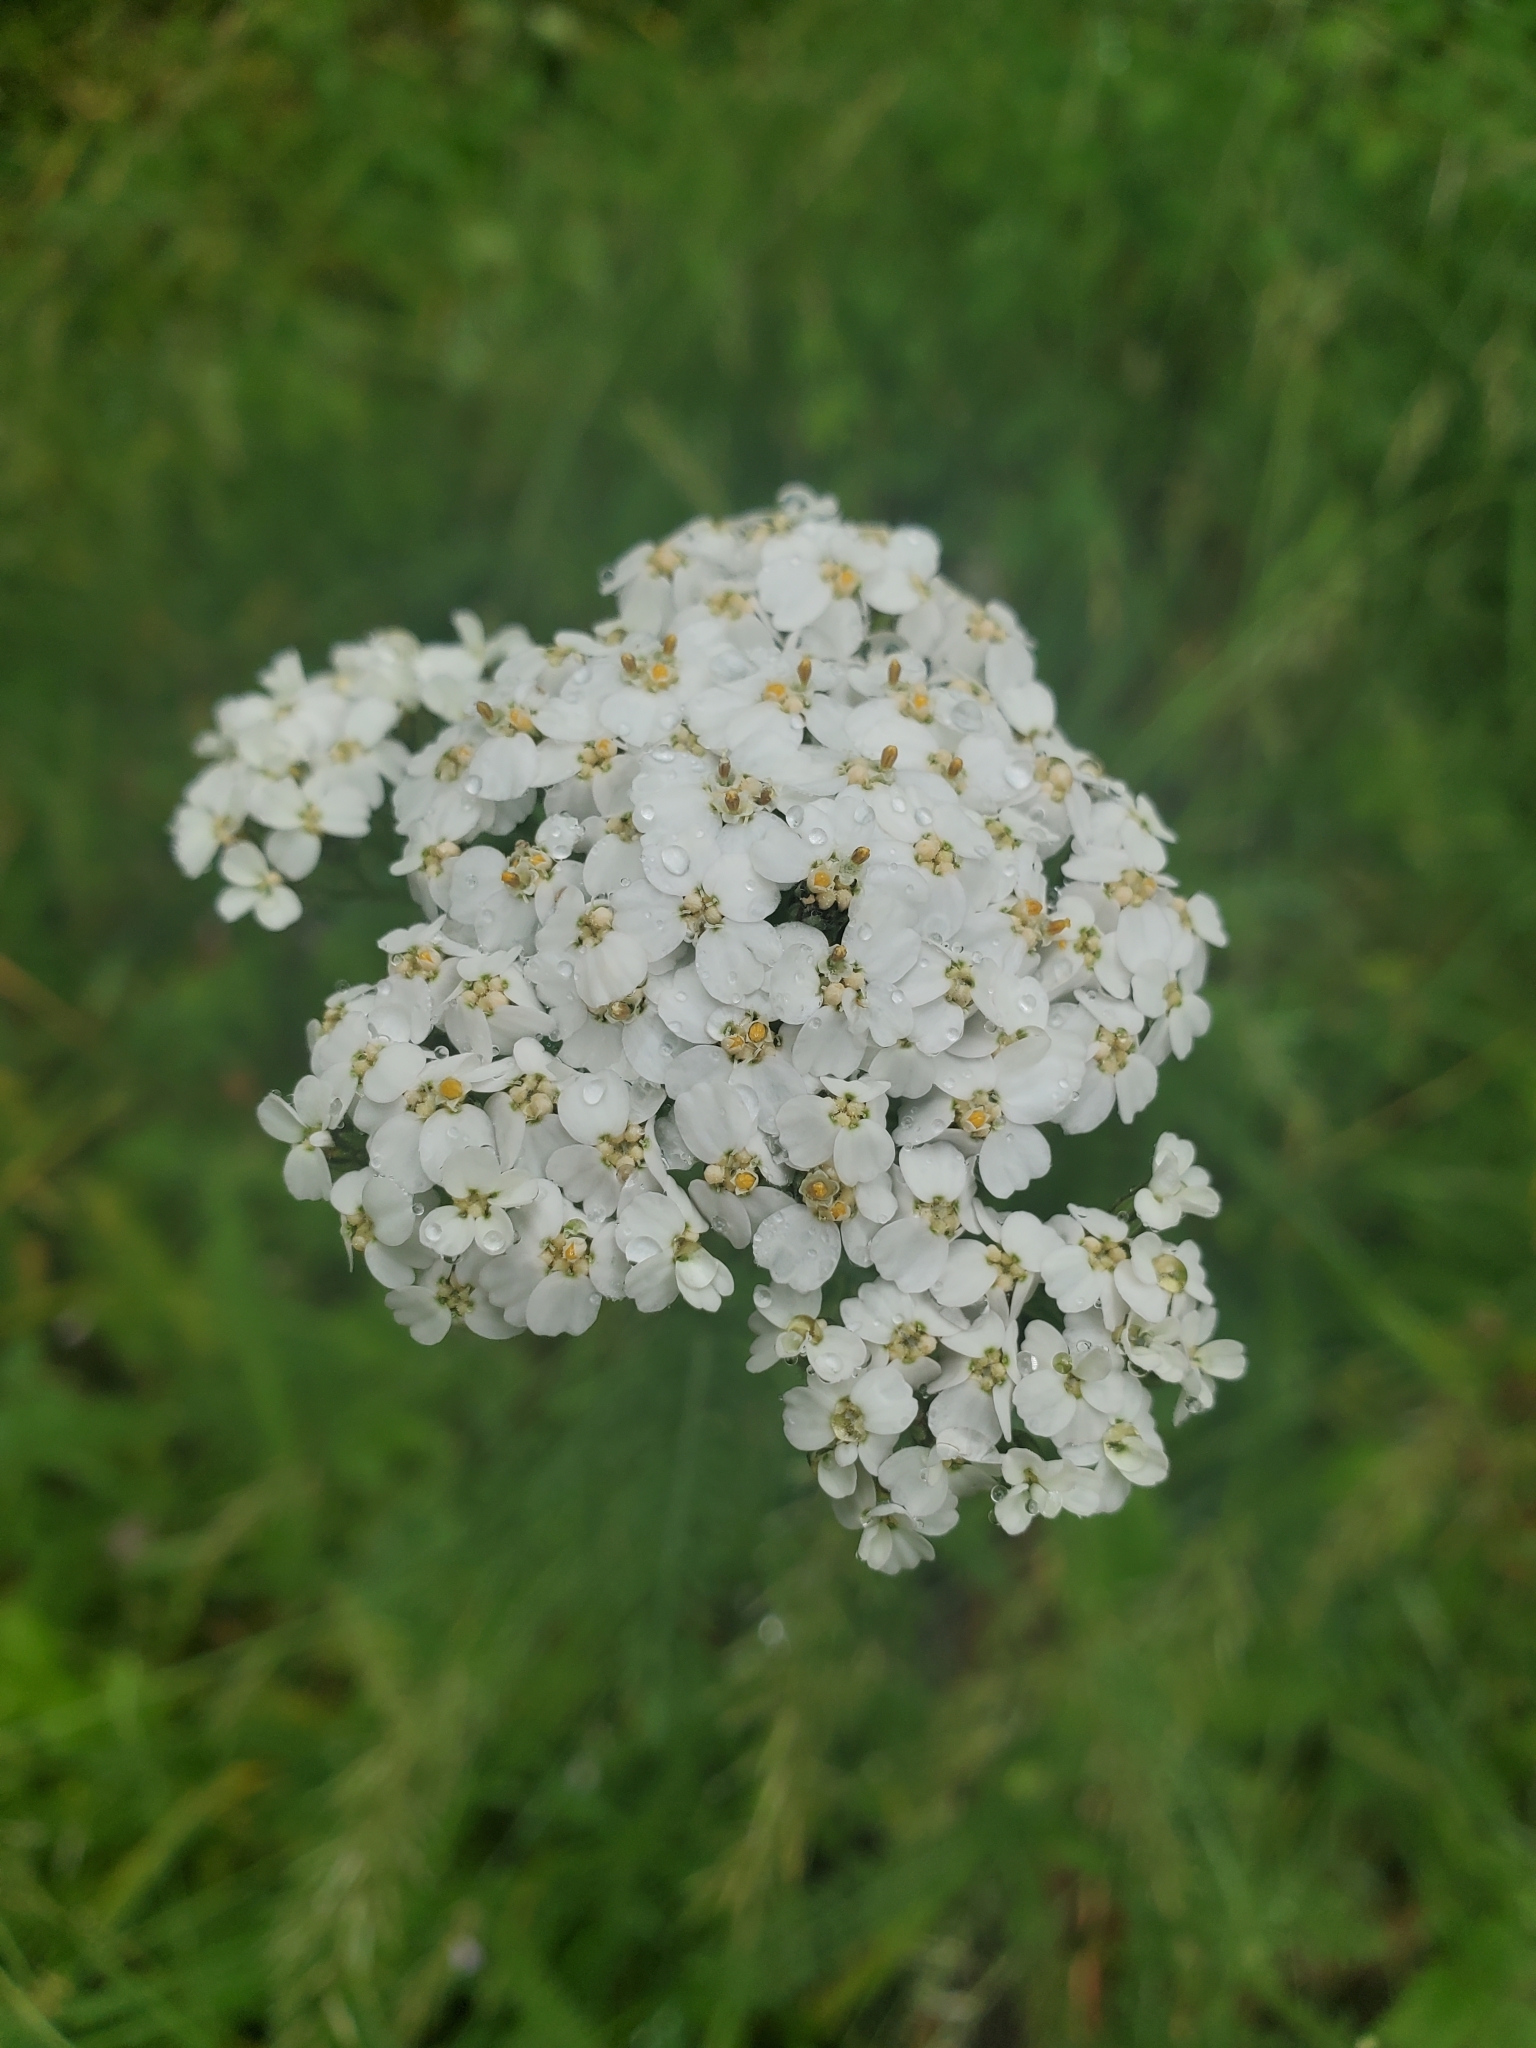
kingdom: Plantae
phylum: Tracheophyta
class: Magnoliopsida
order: Asterales
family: Asteraceae
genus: Achillea
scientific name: Achillea millefolium
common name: Yarrow
